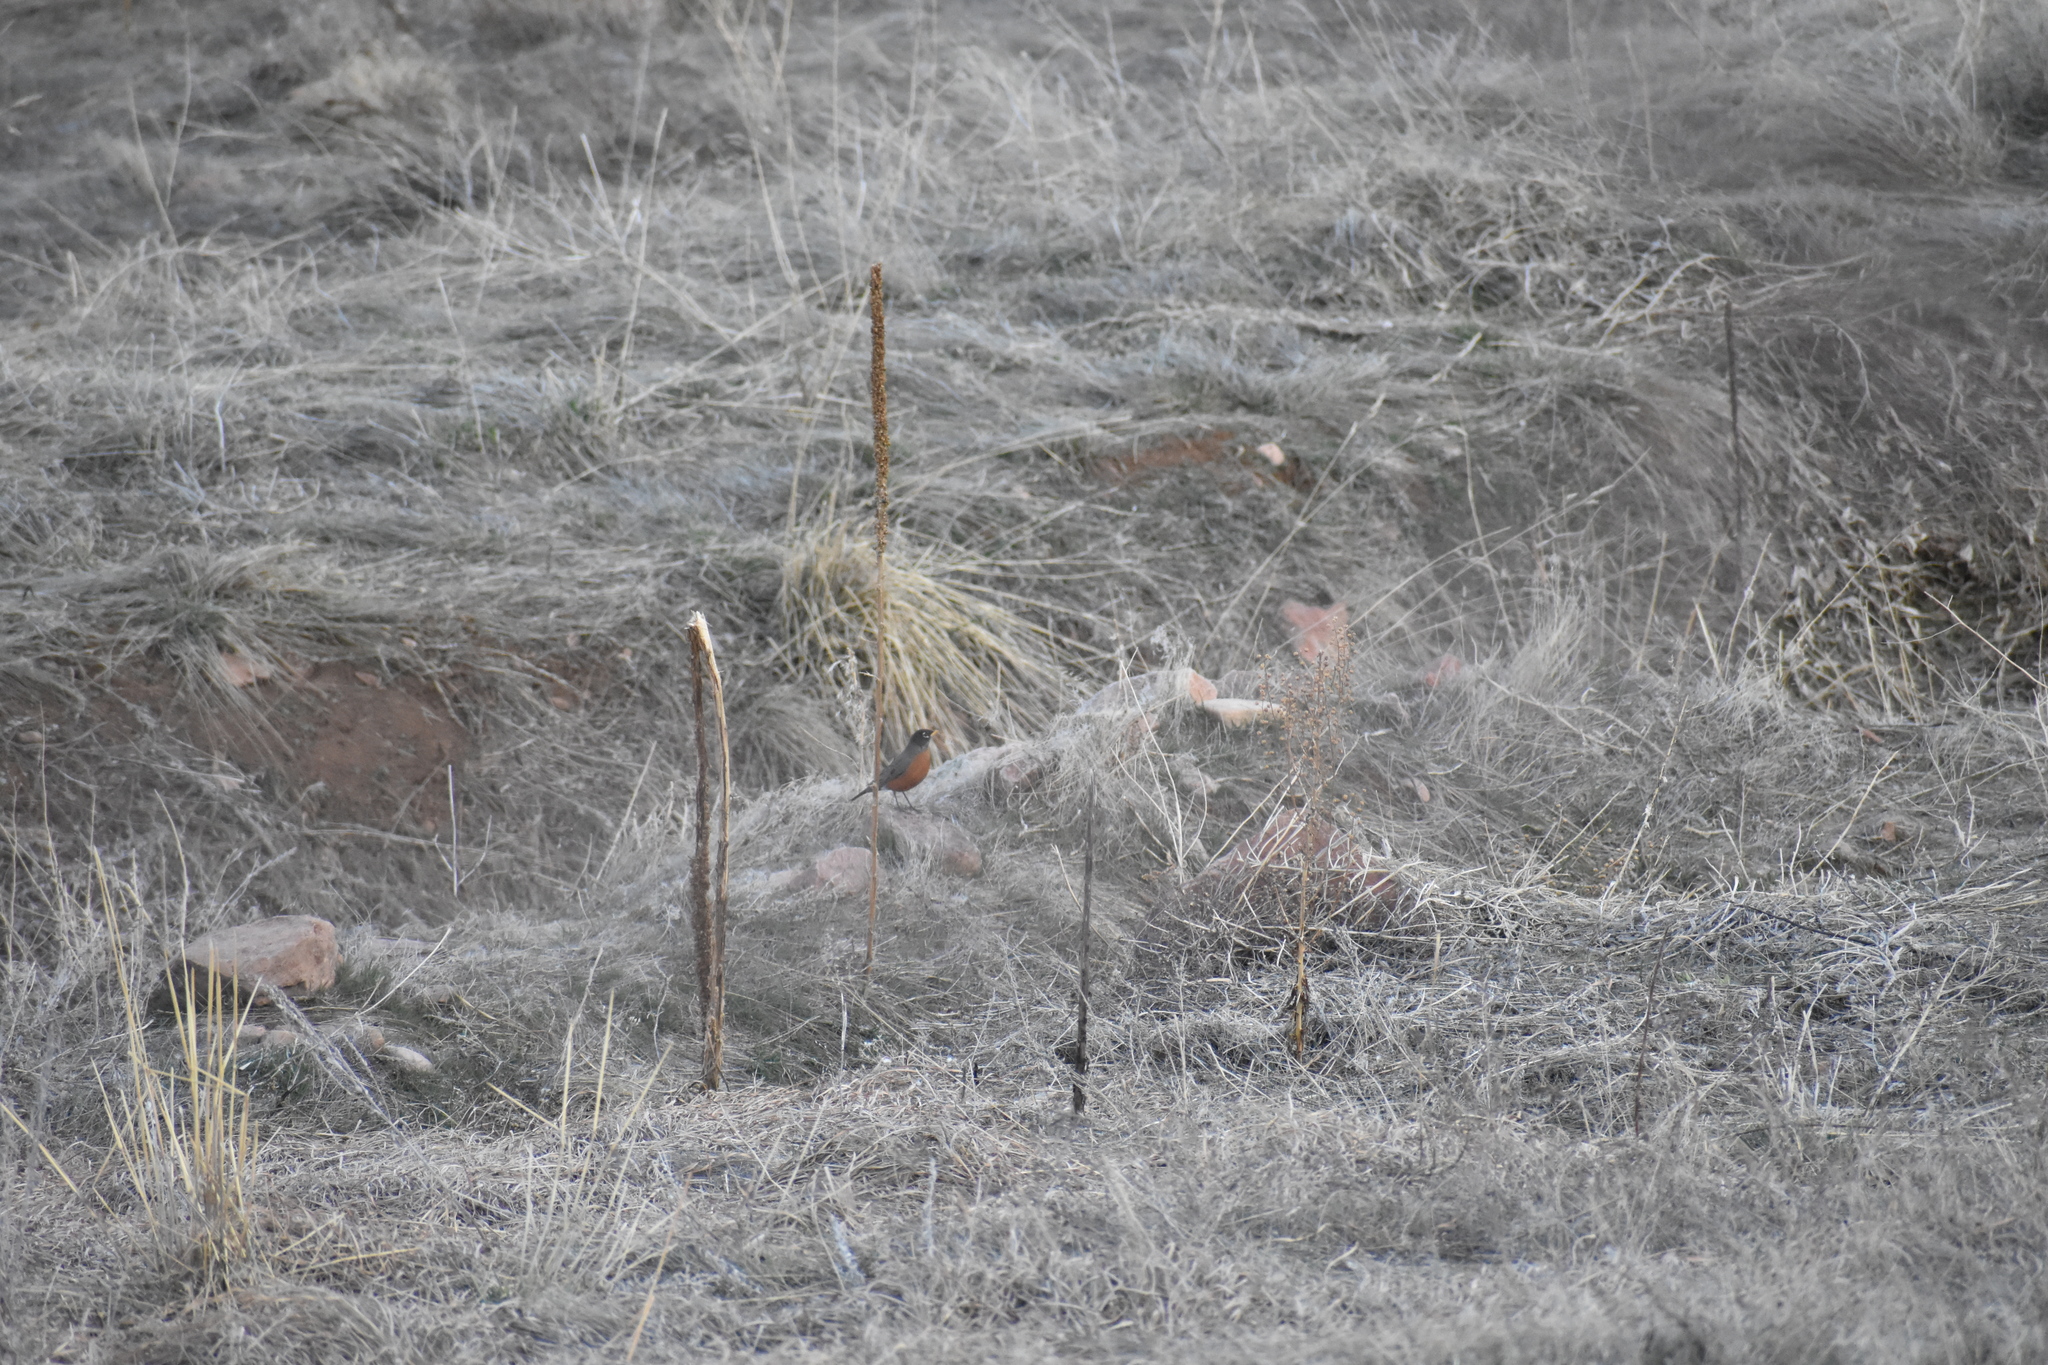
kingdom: Animalia
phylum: Chordata
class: Aves
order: Passeriformes
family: Turdidae
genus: Turdus
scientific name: Turdus migratorius
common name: American robin
